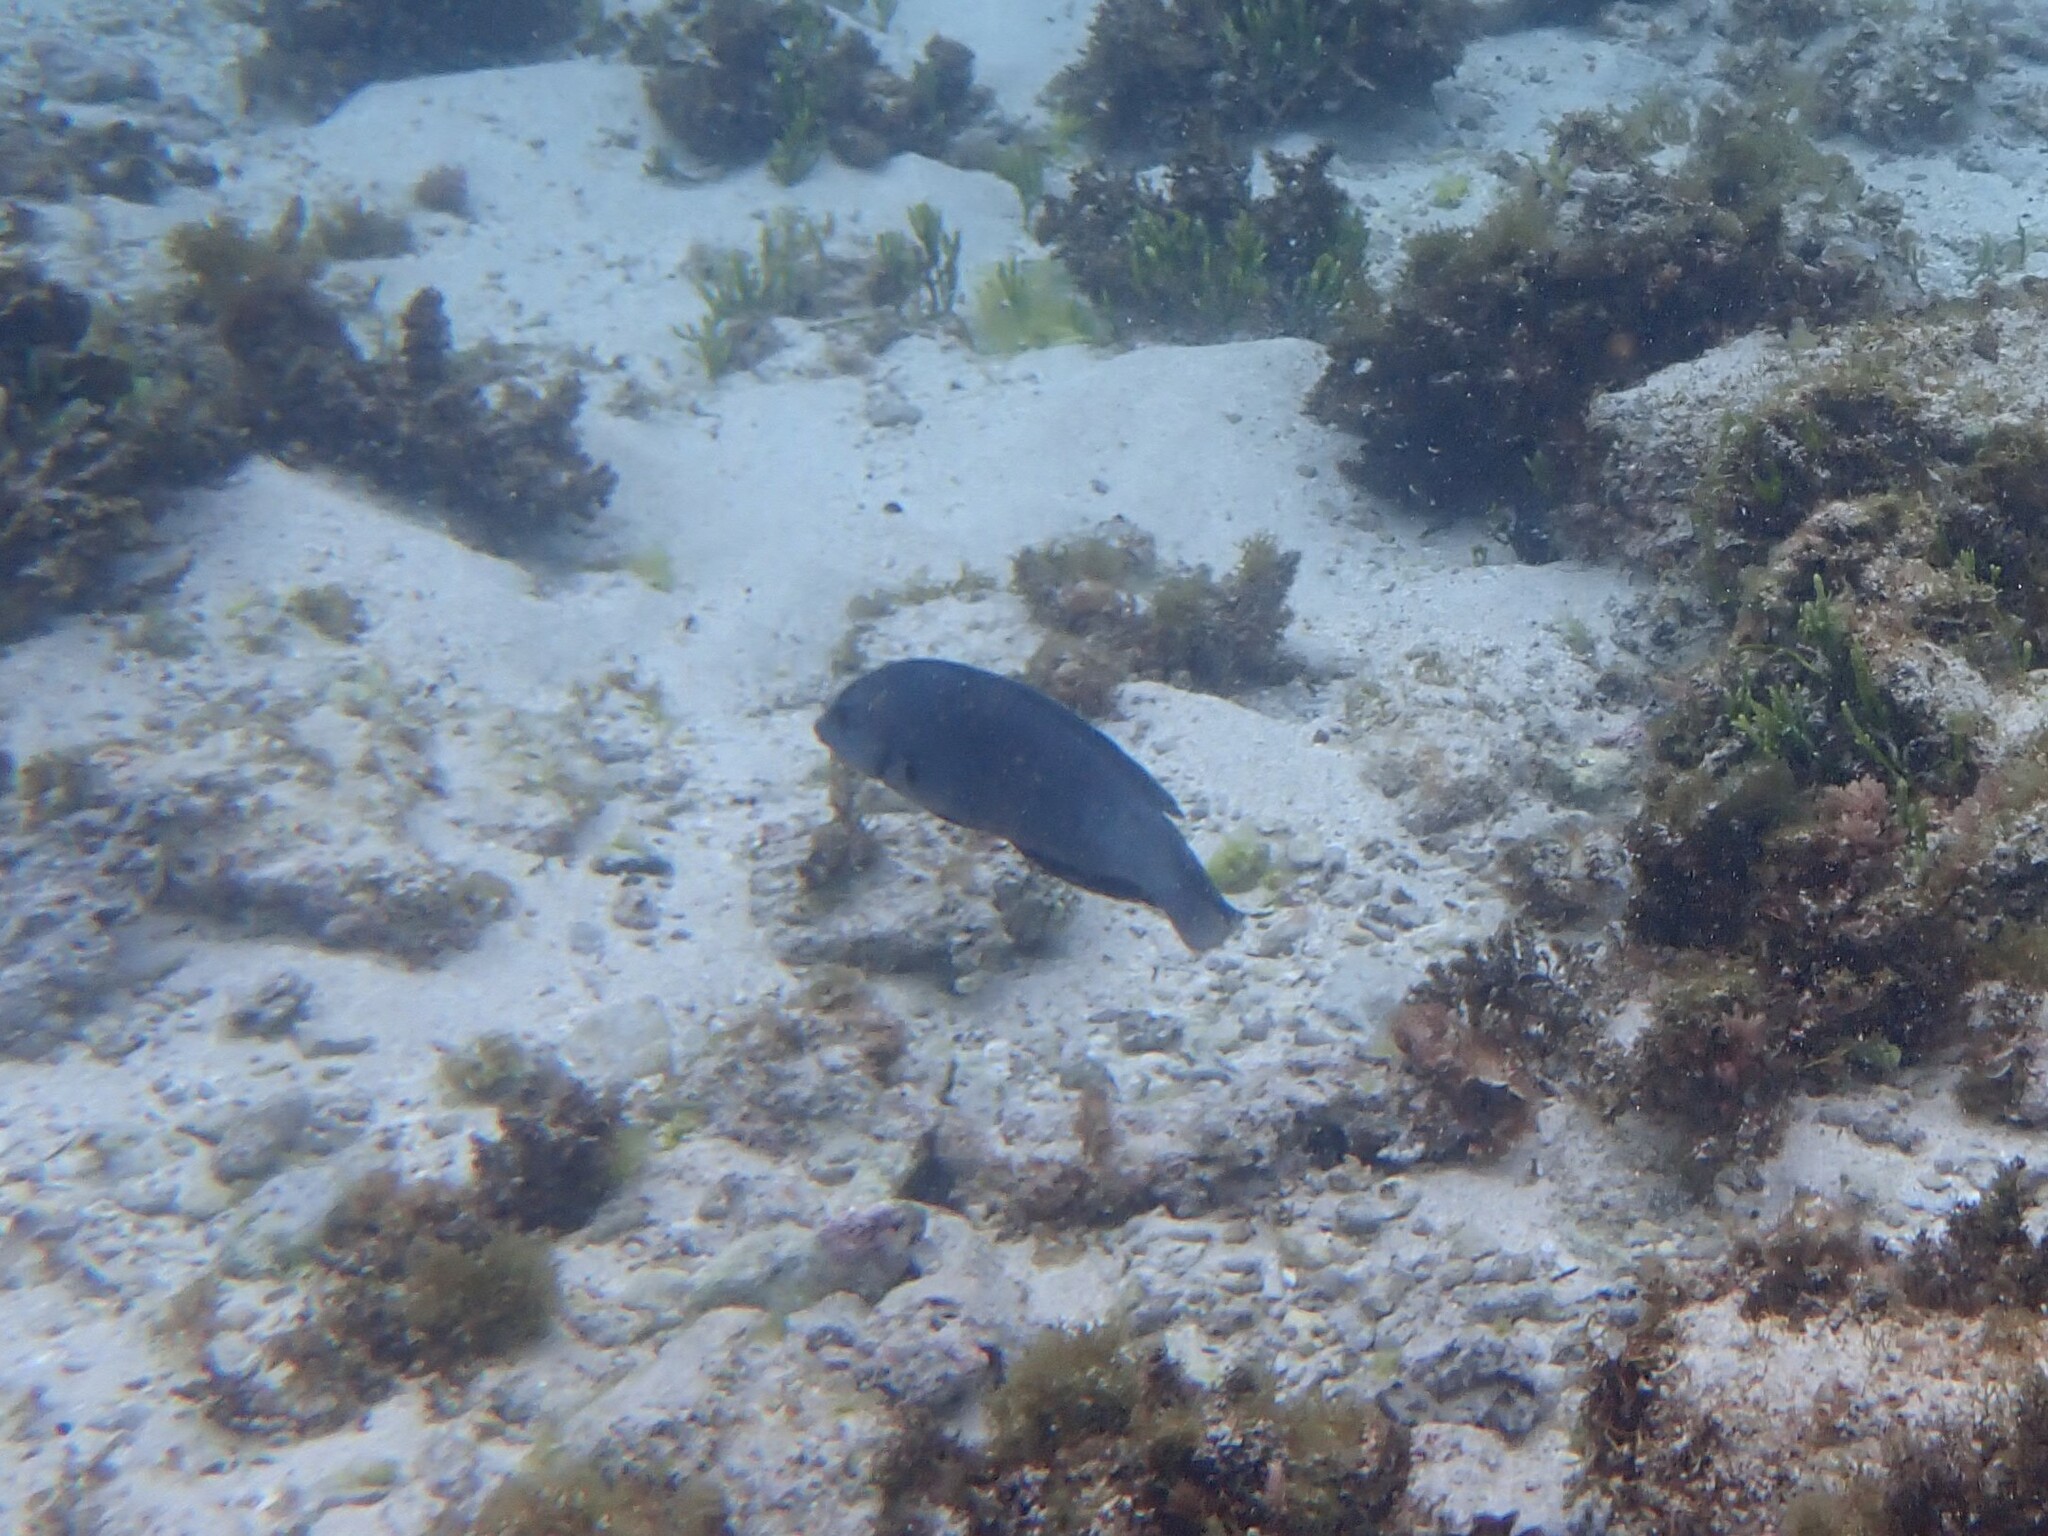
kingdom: Animalia
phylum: Chordata
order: Perciformes
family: Labridae
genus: Coris
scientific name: Coris bulbifrons
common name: Doubleheader
